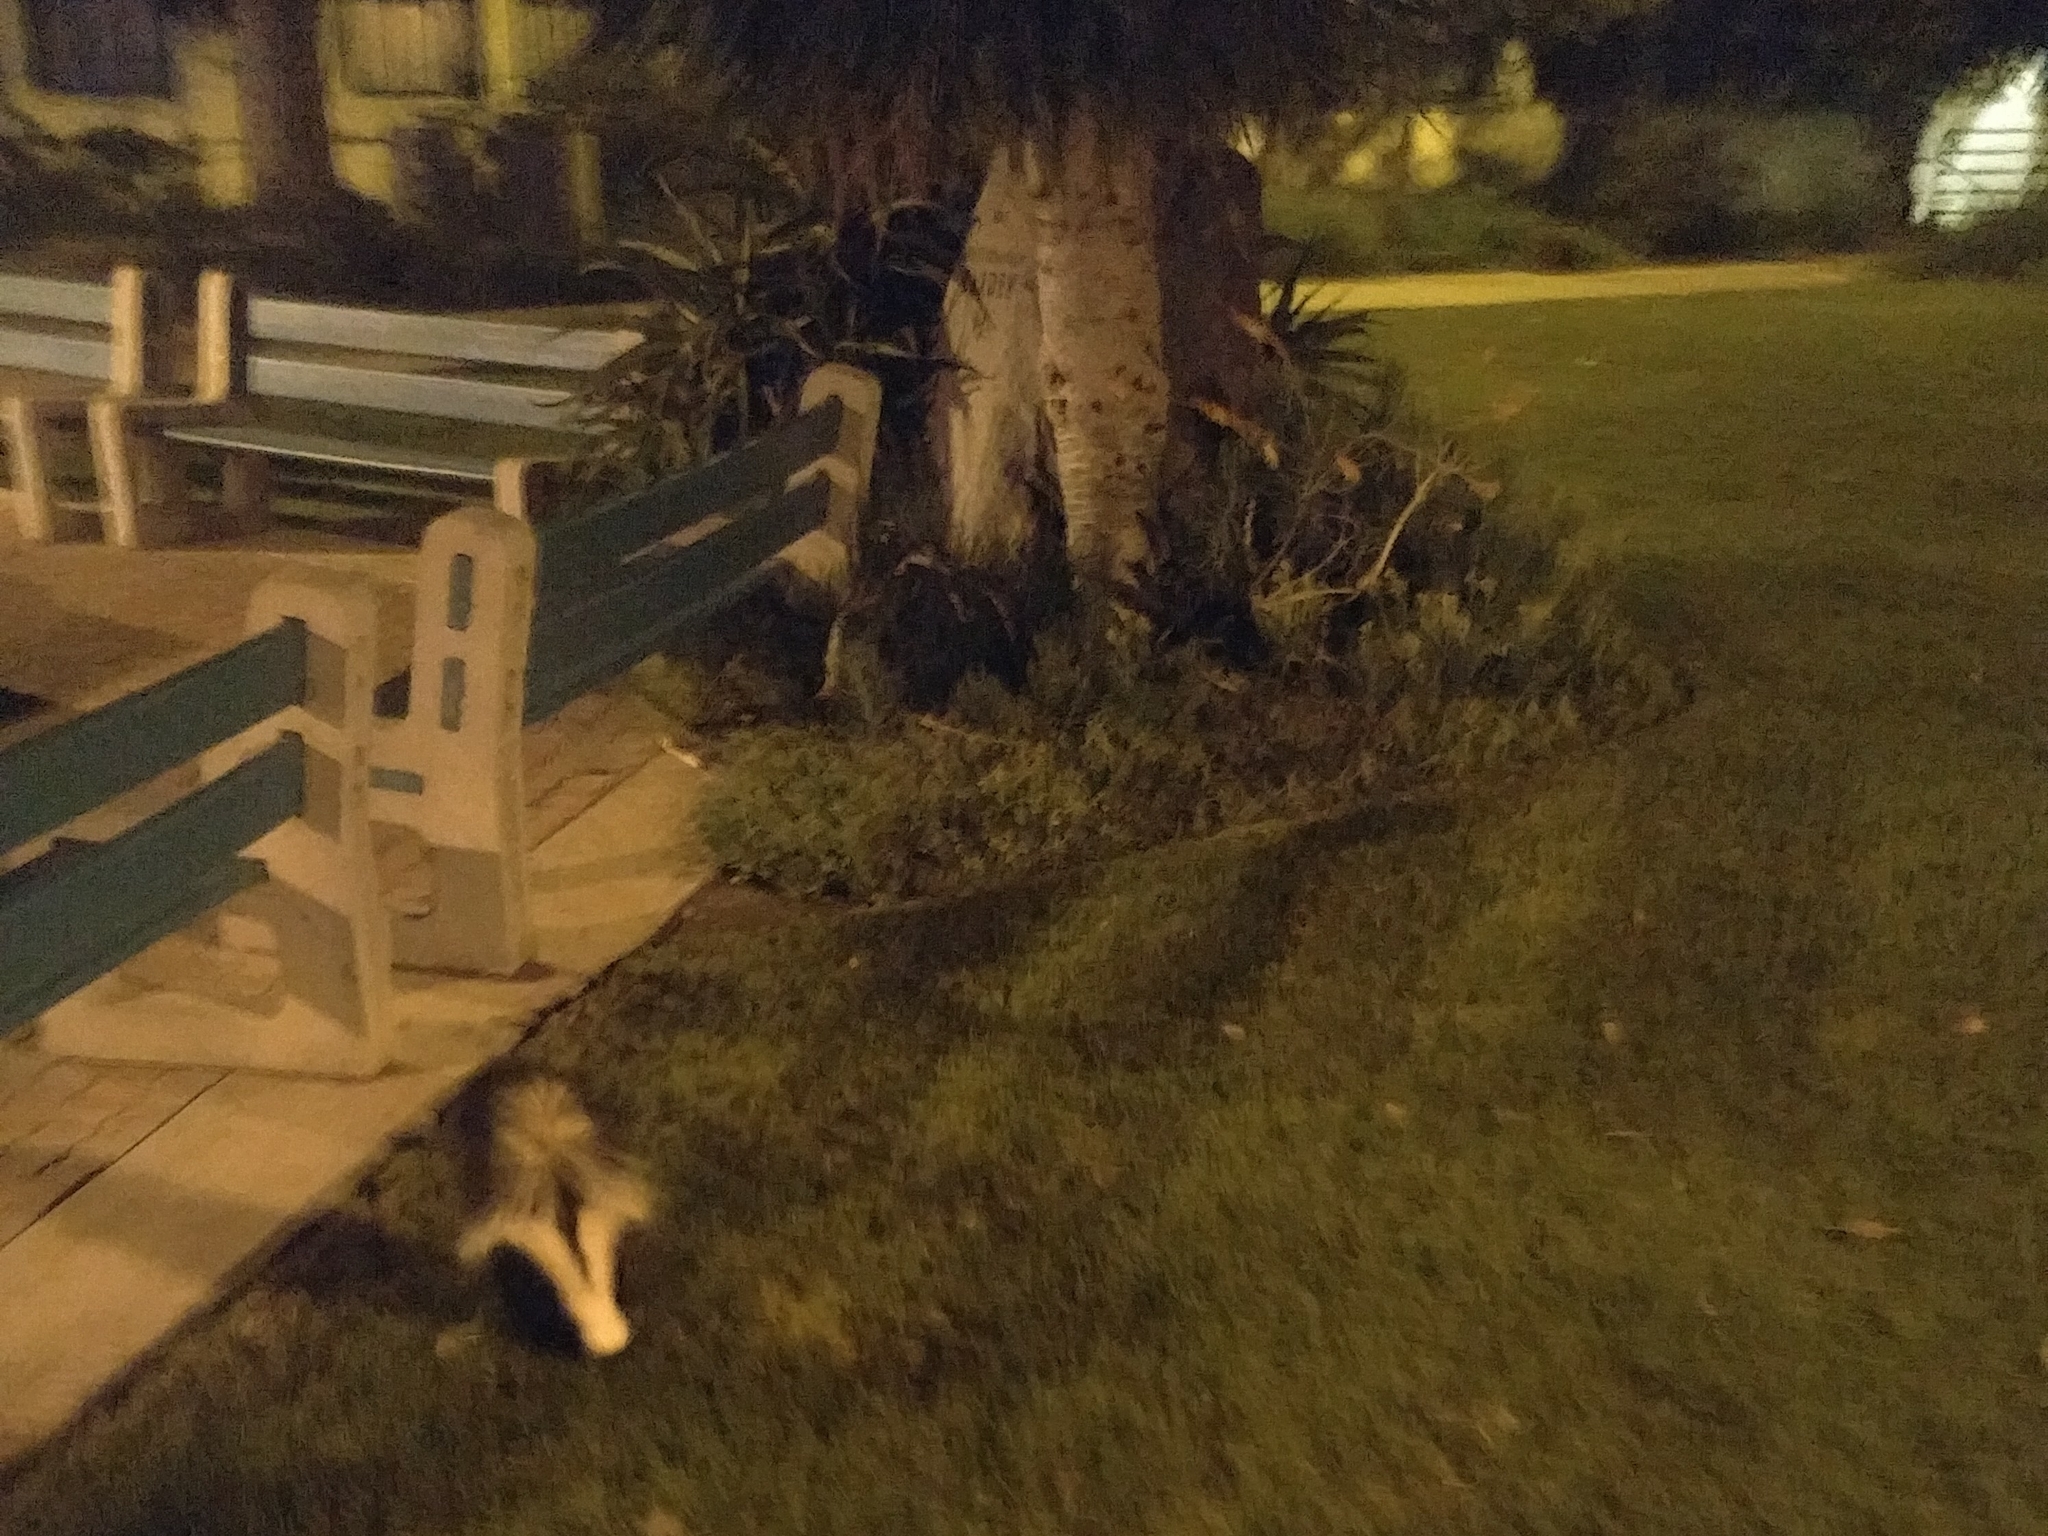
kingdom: Animalia
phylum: Chordata
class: Mammalia
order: Carnivora
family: Mephitidae
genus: Mephitis
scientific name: Mephitis mephitis
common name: Striped skunk
